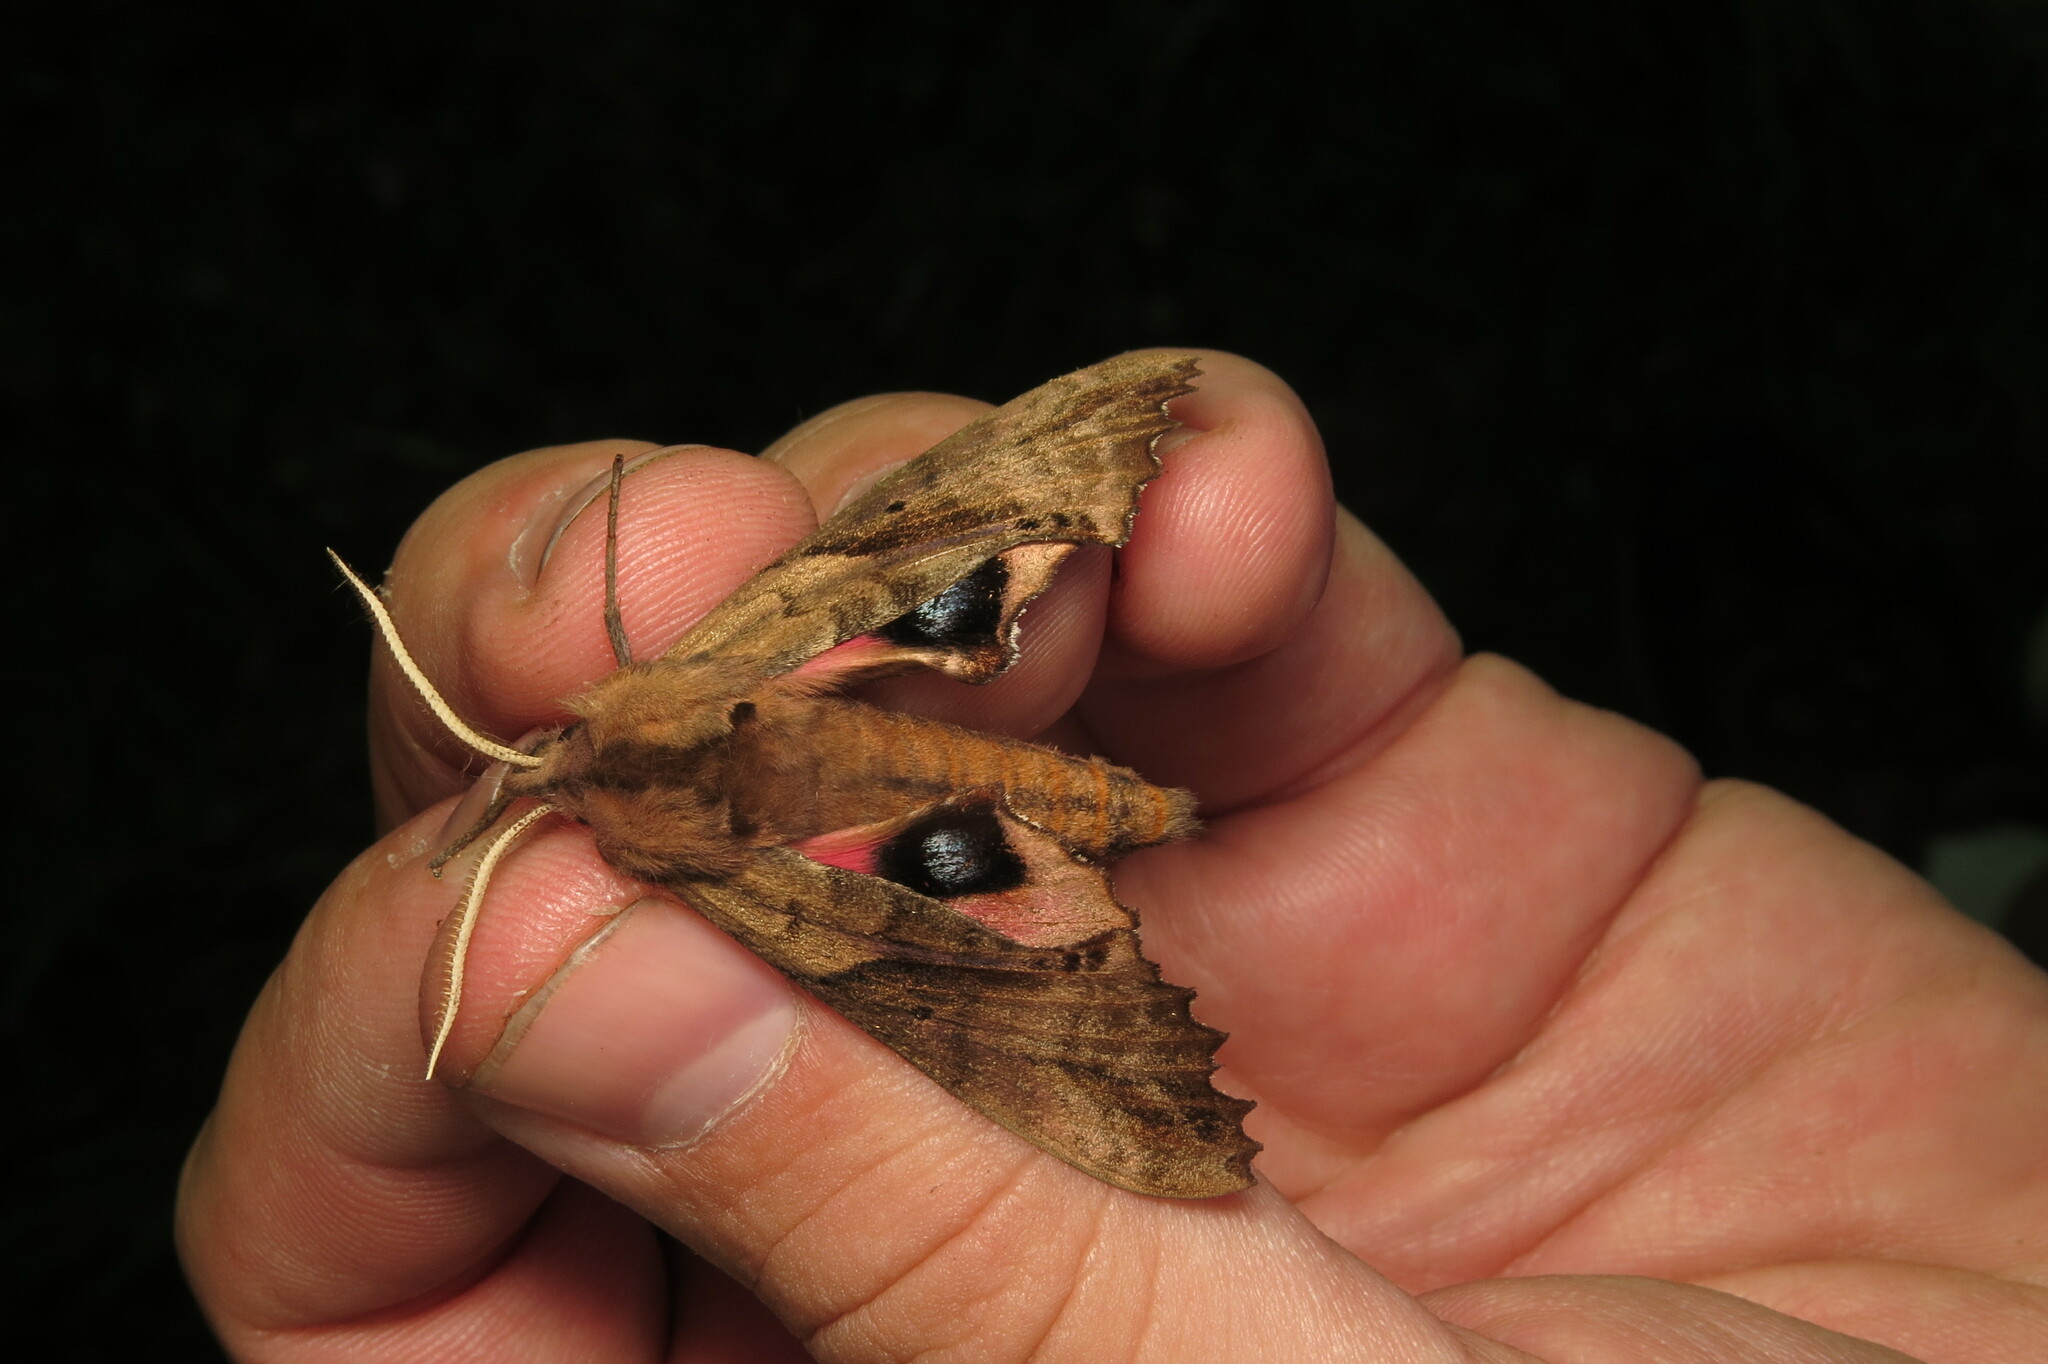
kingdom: Animalia
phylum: Arthropoda
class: Insecta
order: Lepidoptera
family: Sphingidae
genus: Paonias
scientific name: Paonias excaecata
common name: Blind-eyed sphinx
